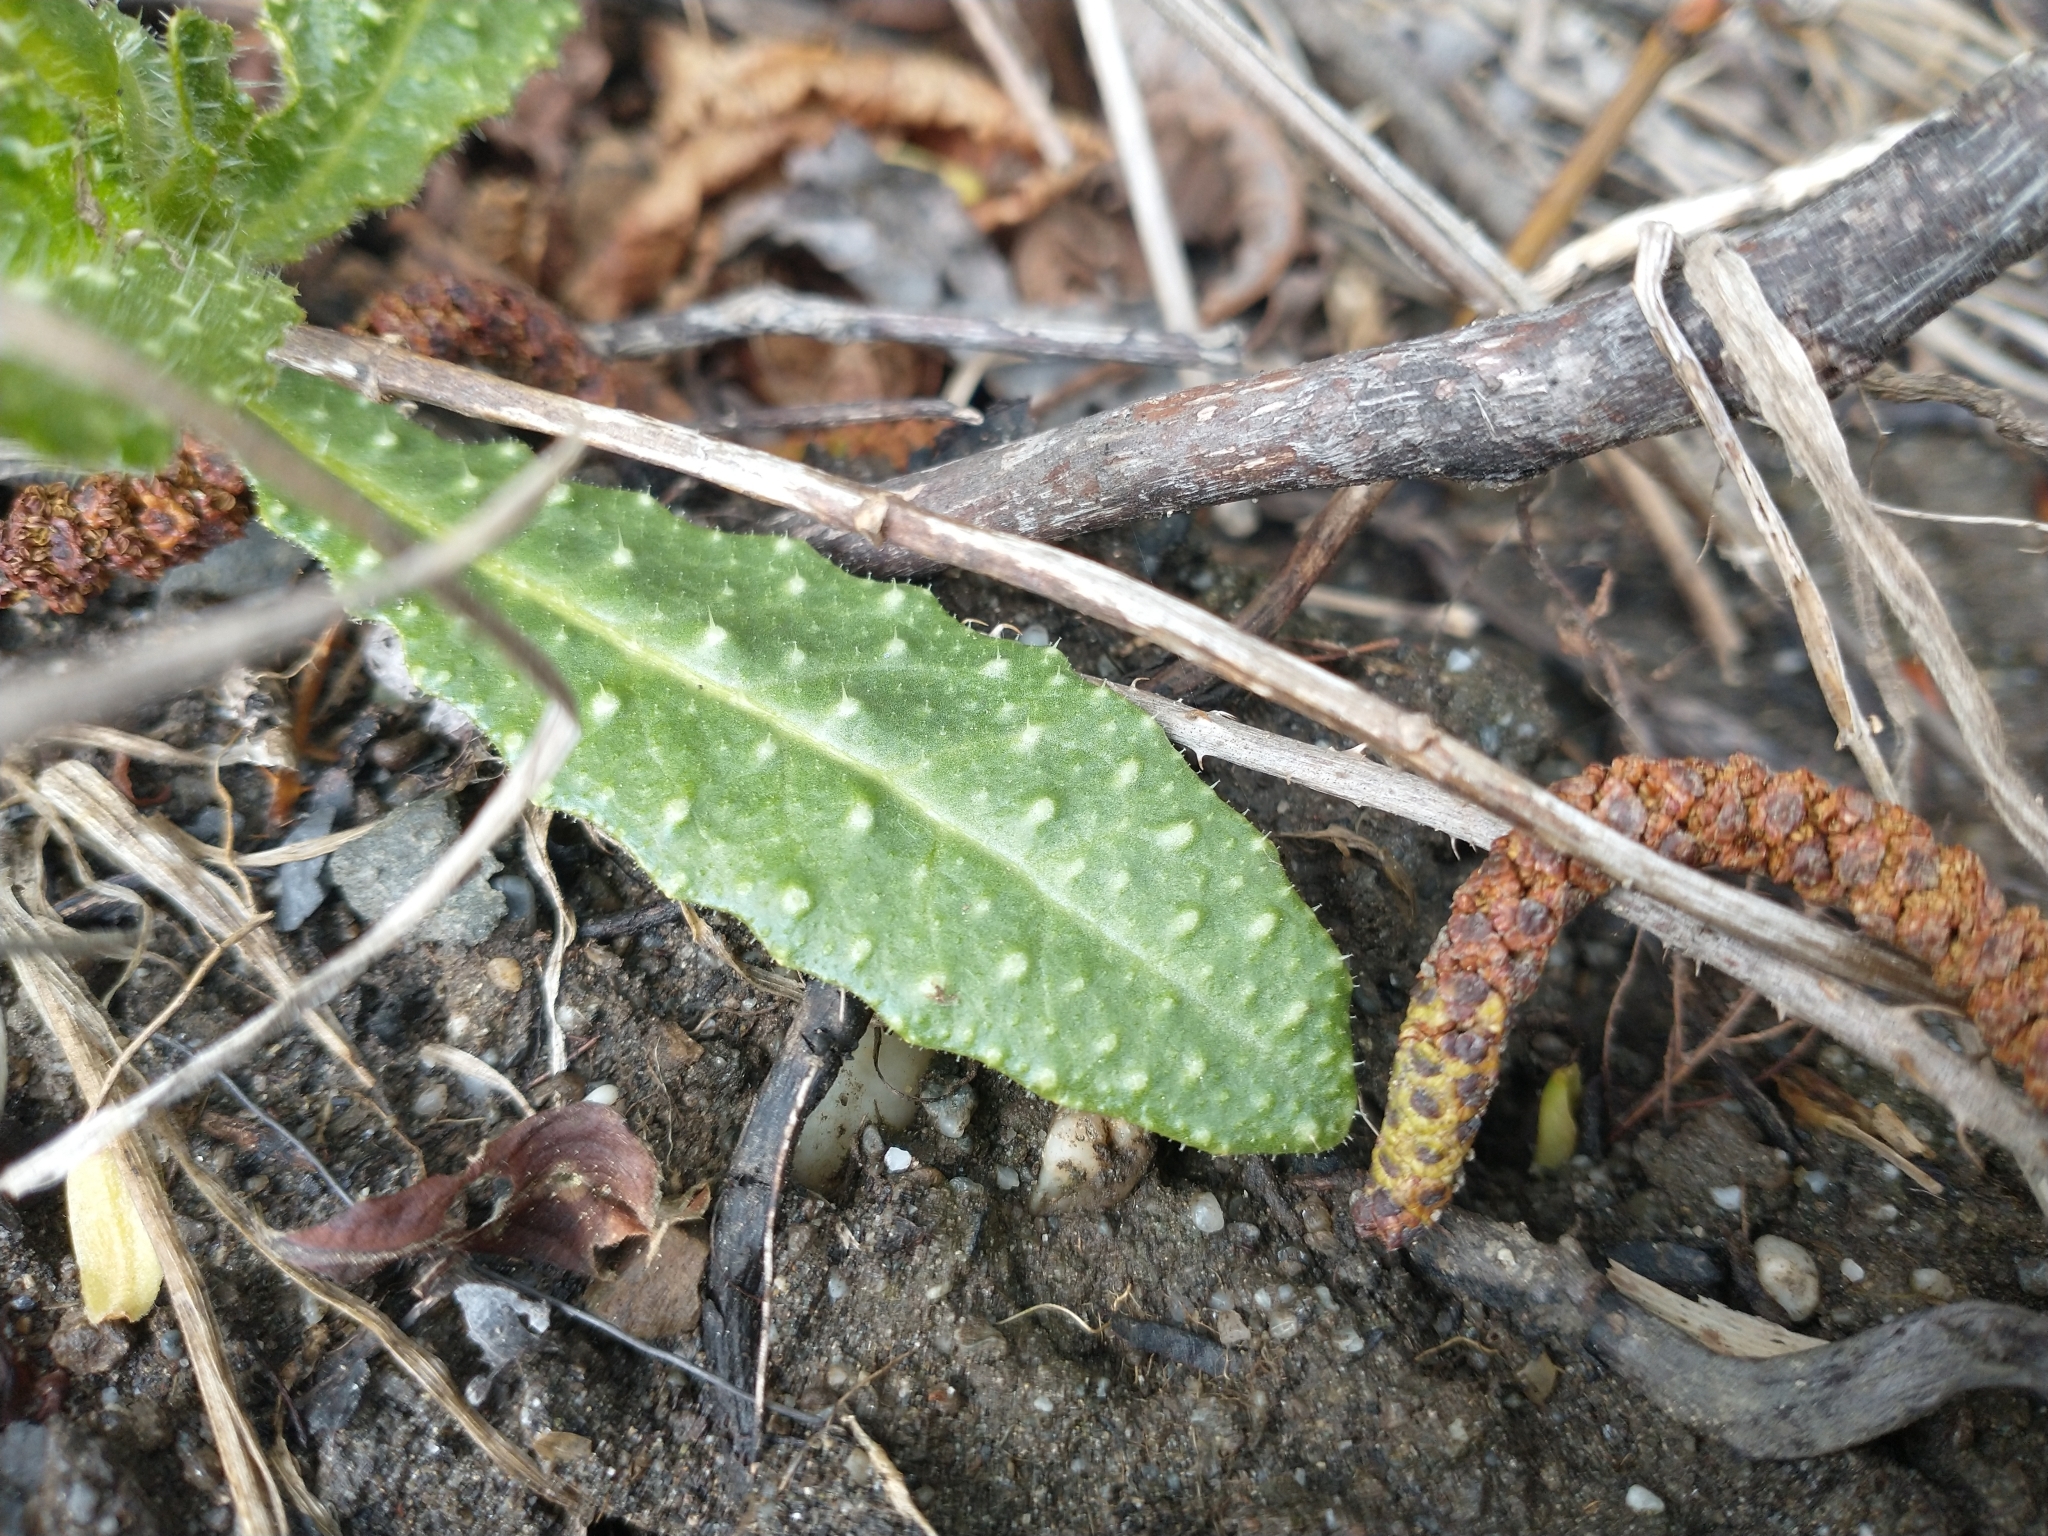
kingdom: Plantae
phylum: Tracheophyta
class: Magnoliopsida
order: Asterales
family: Asteraceae
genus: Helminthotheca
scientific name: Helminthotheca echioides
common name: Ox-tongue
